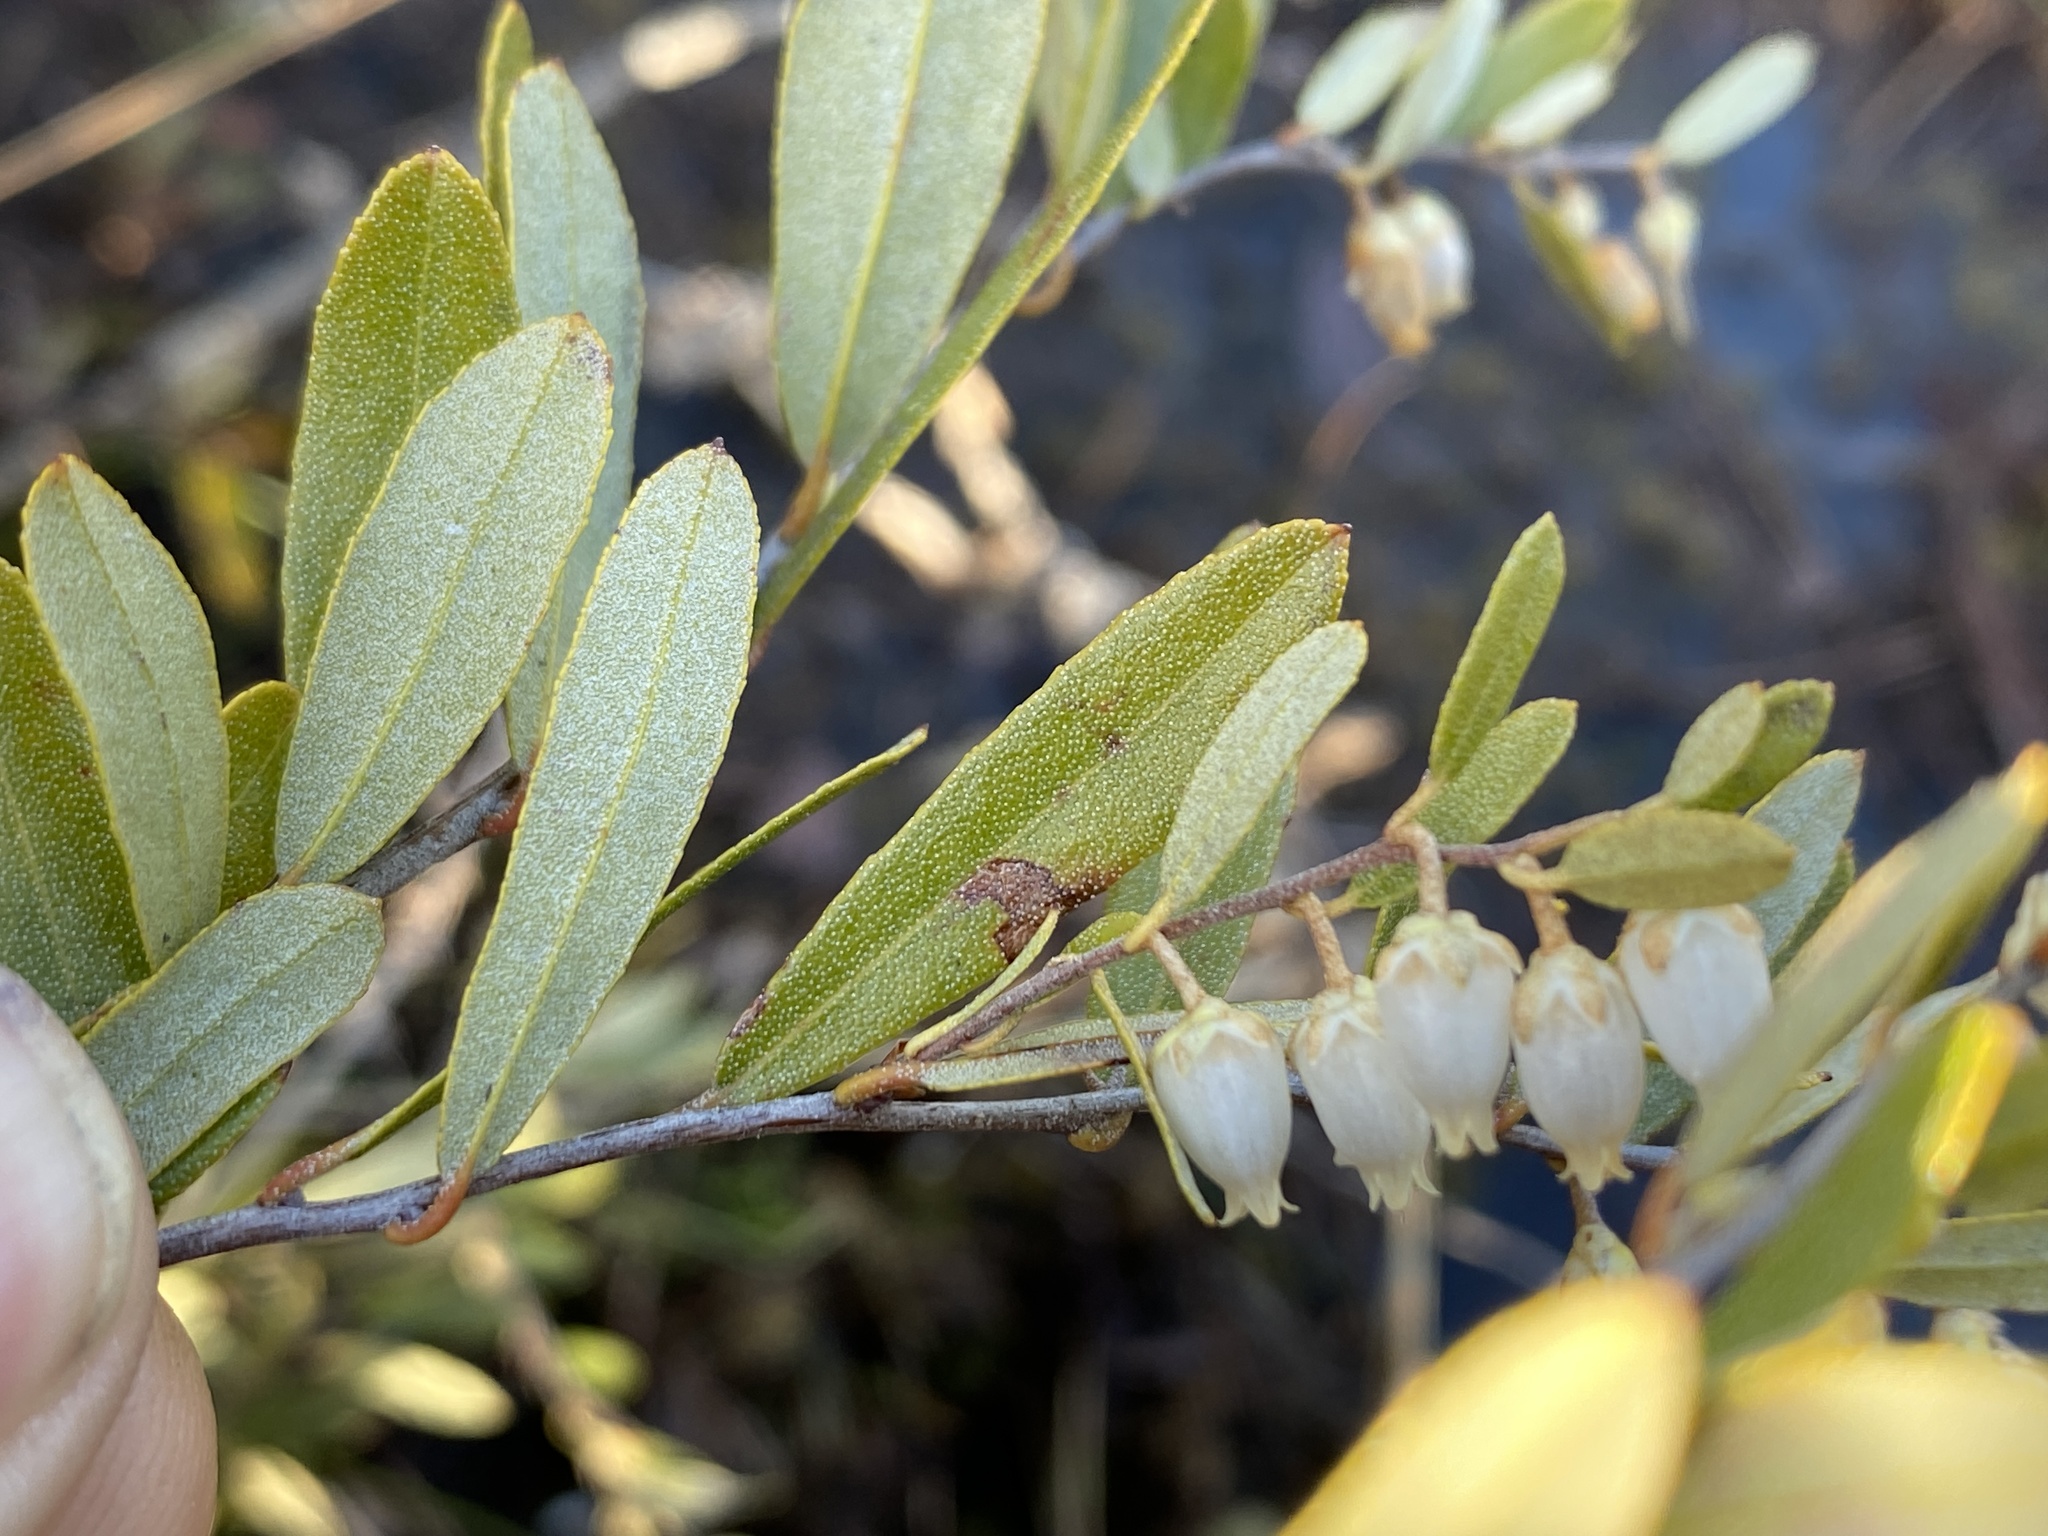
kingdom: Plantae
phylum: Tracheophyta
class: Magnoliopsida
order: Ericales
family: Ericaceae
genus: Chamaedaphne
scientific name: Chamaedaphne calyculata
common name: Leatherleaf
